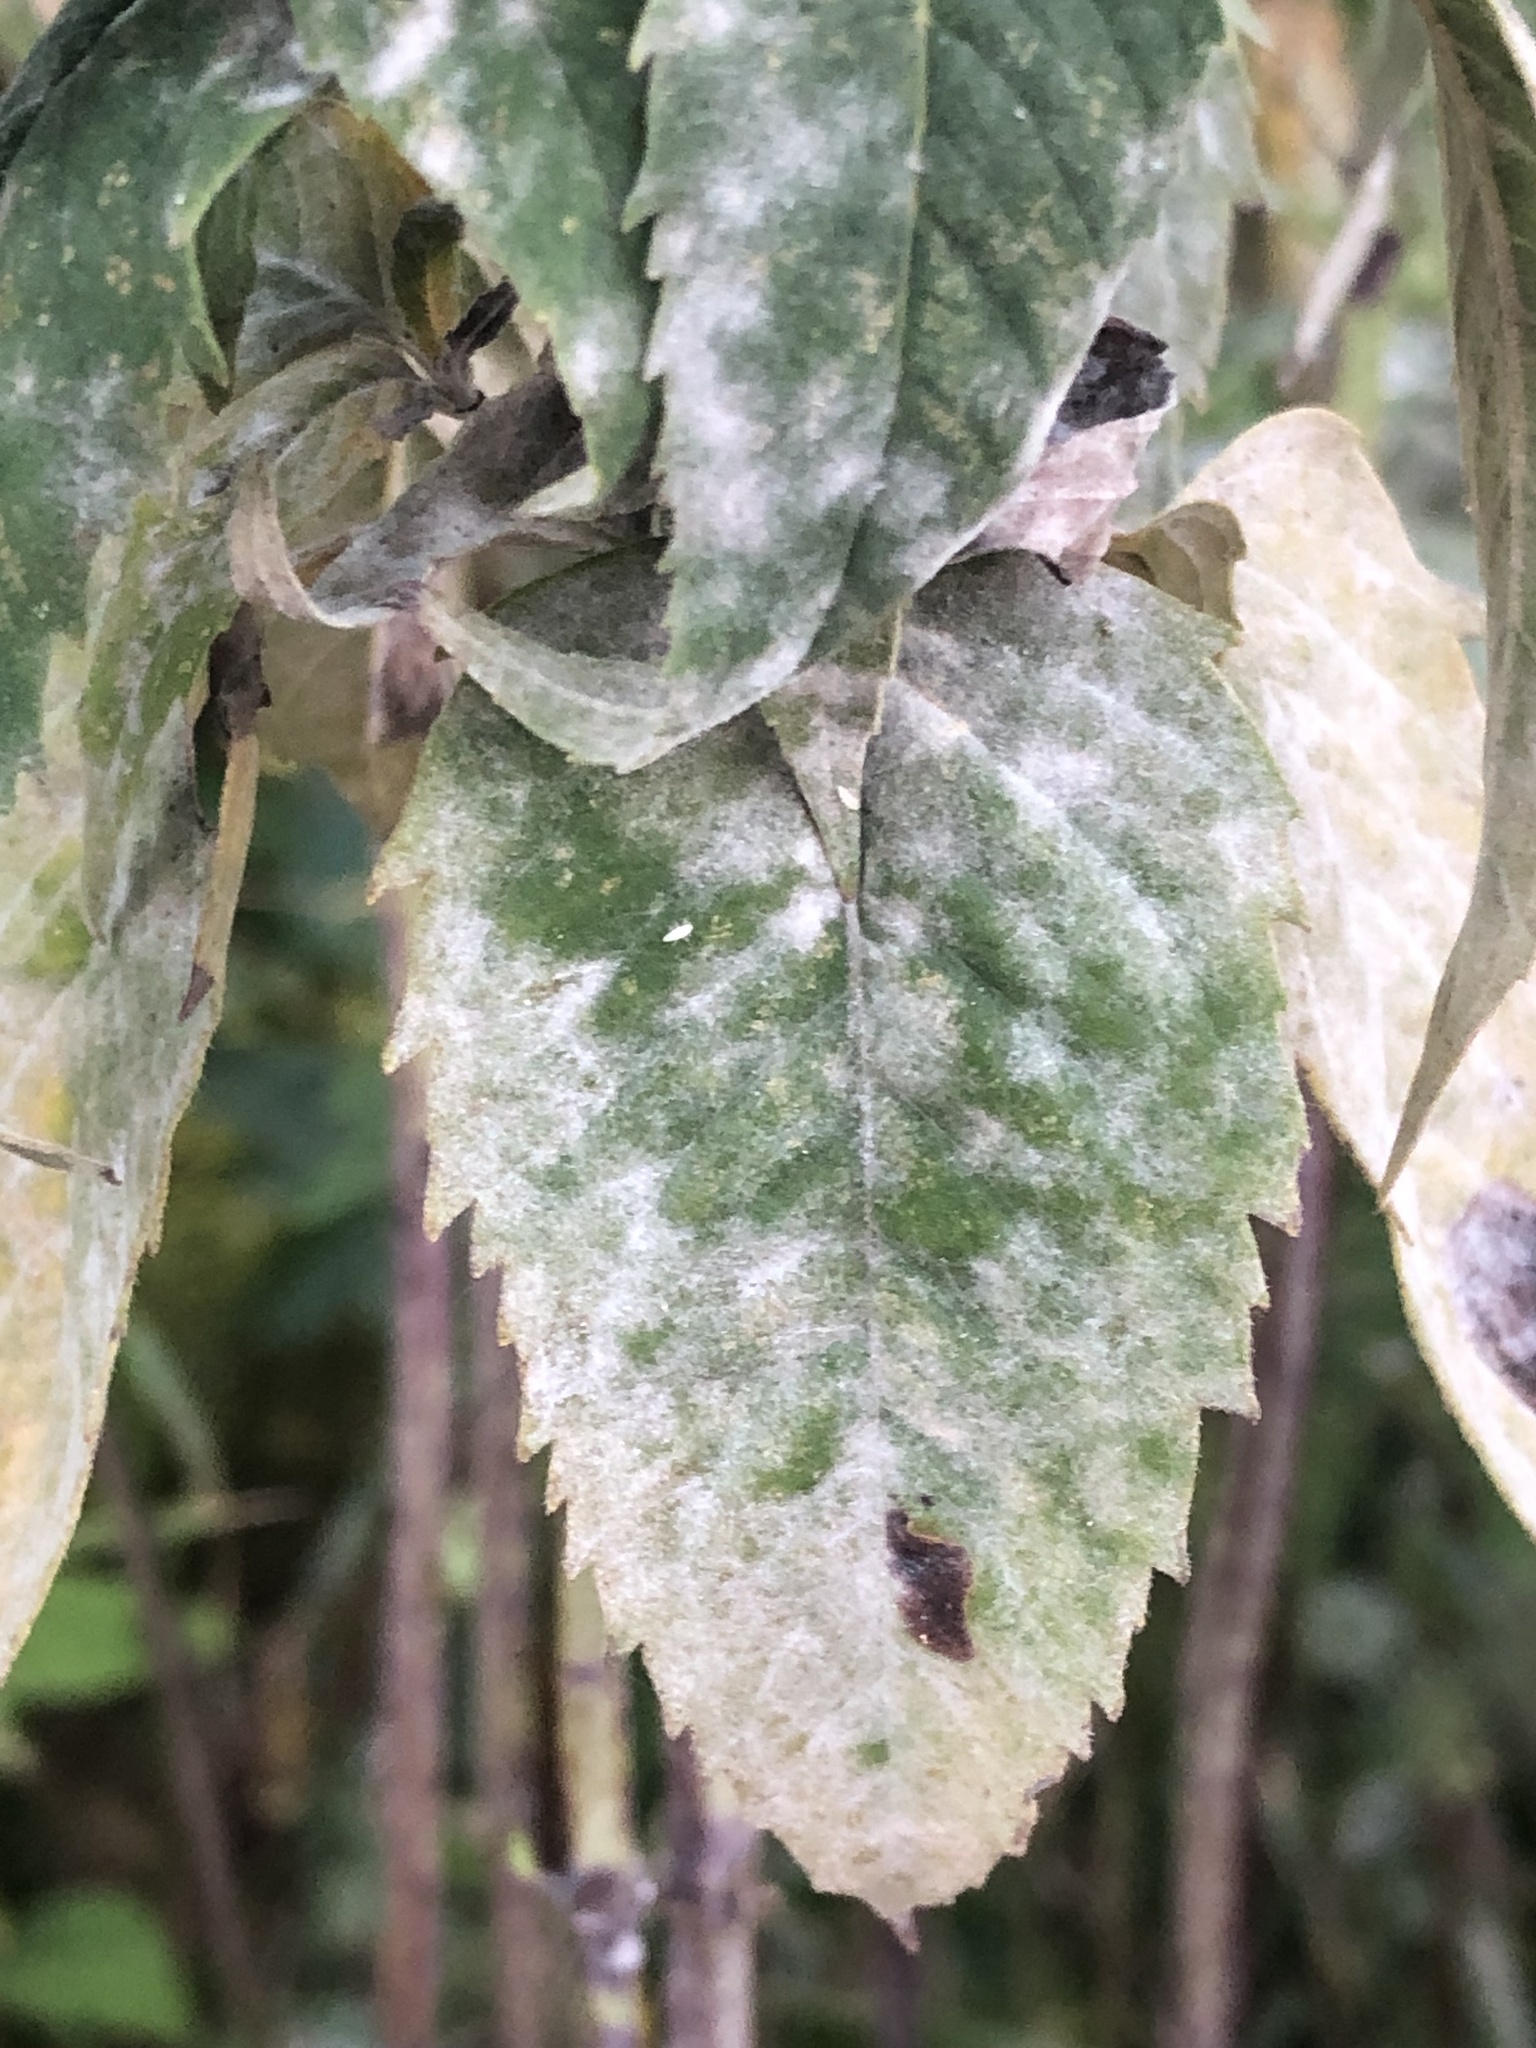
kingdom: Fungi
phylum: Ascomycota
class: Leotiomycetes
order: Helotiales
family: Erysiphaceae
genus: Golovinomyces
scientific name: Golovinomyces monardae
